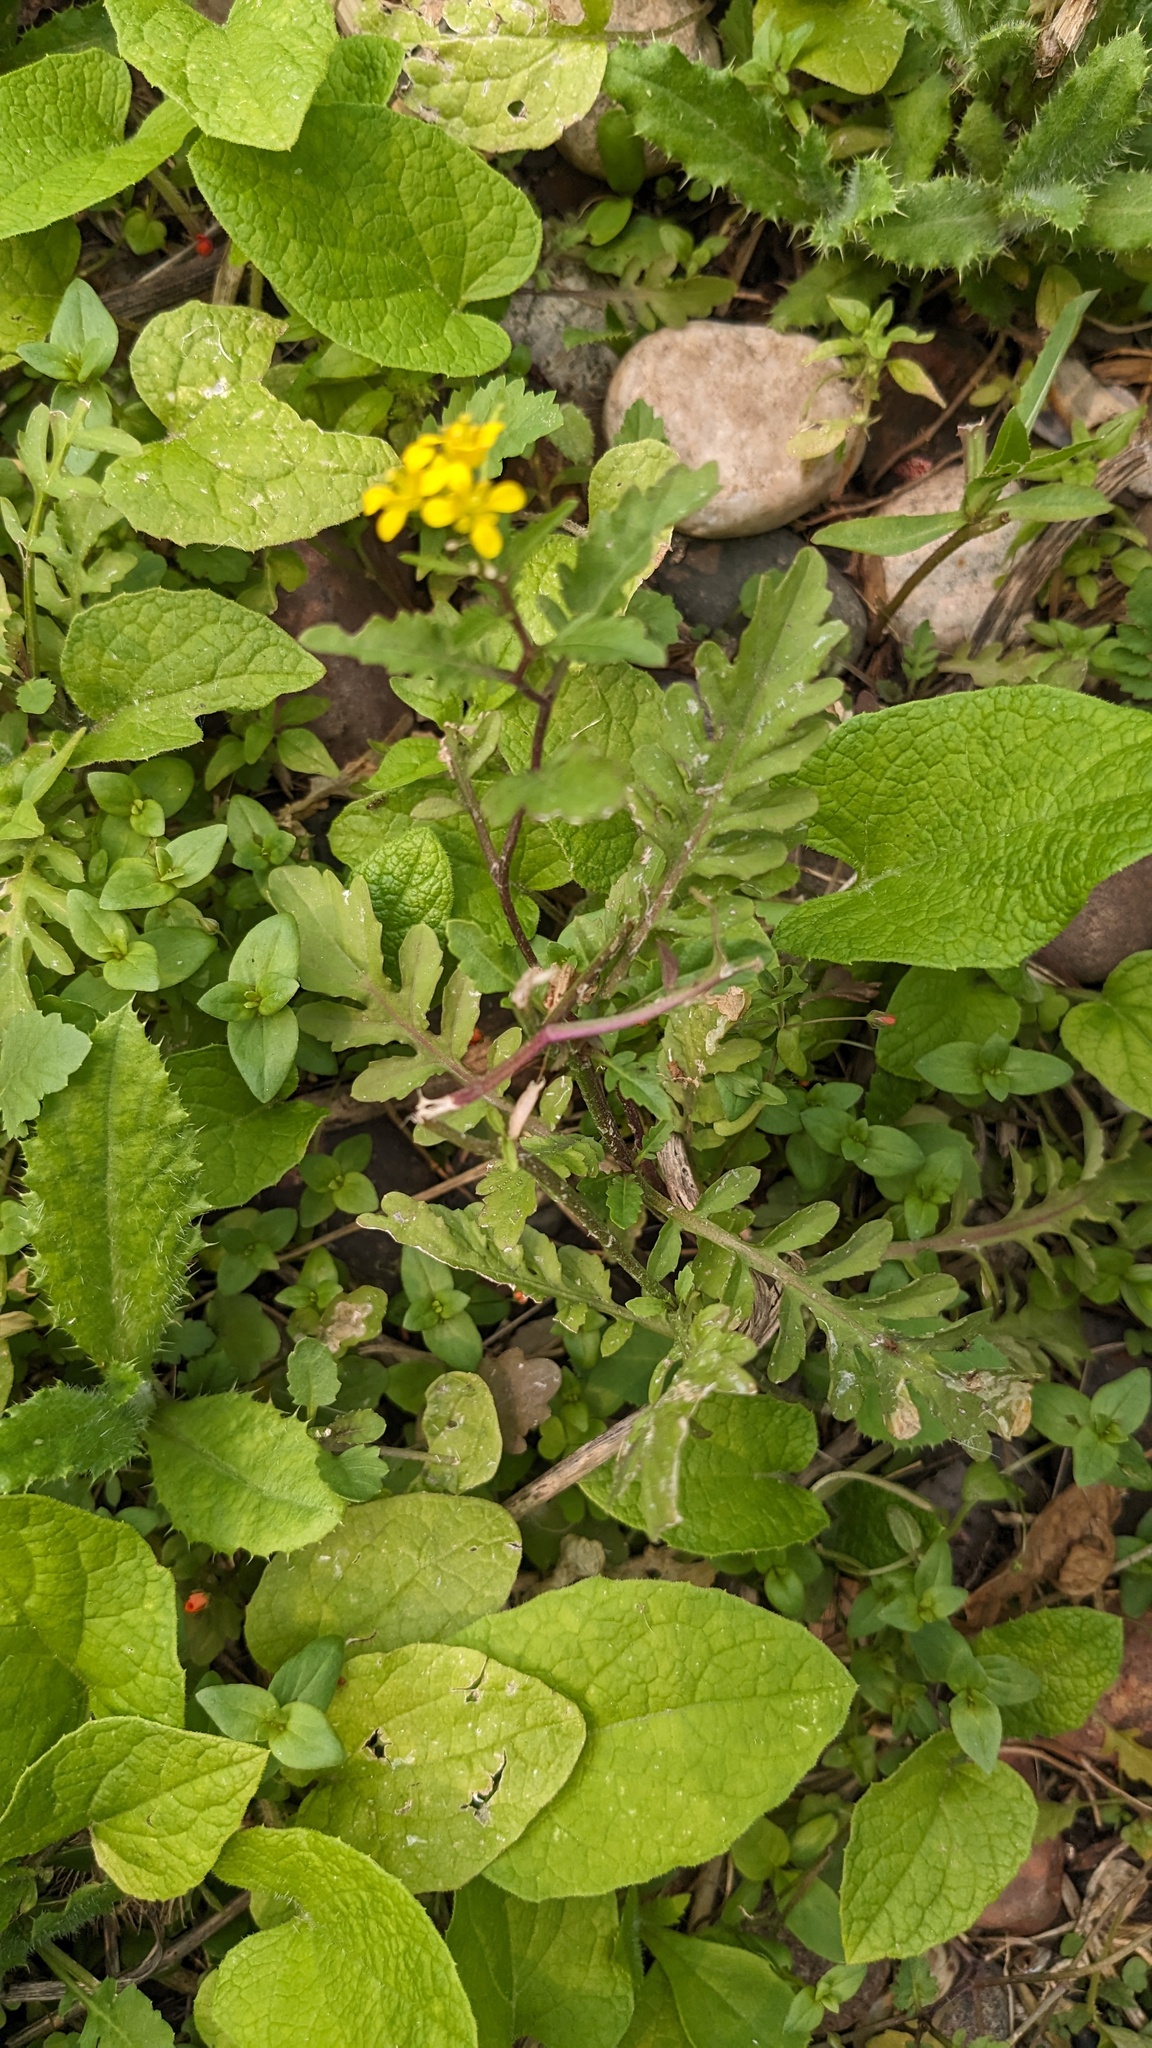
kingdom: Plantae
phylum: Tracheophyta
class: Magnoliopsida
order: Brassicales
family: Brassicaceae
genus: Rorippa
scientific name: Rorippa sylvestris
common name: Creeping yellowcress
